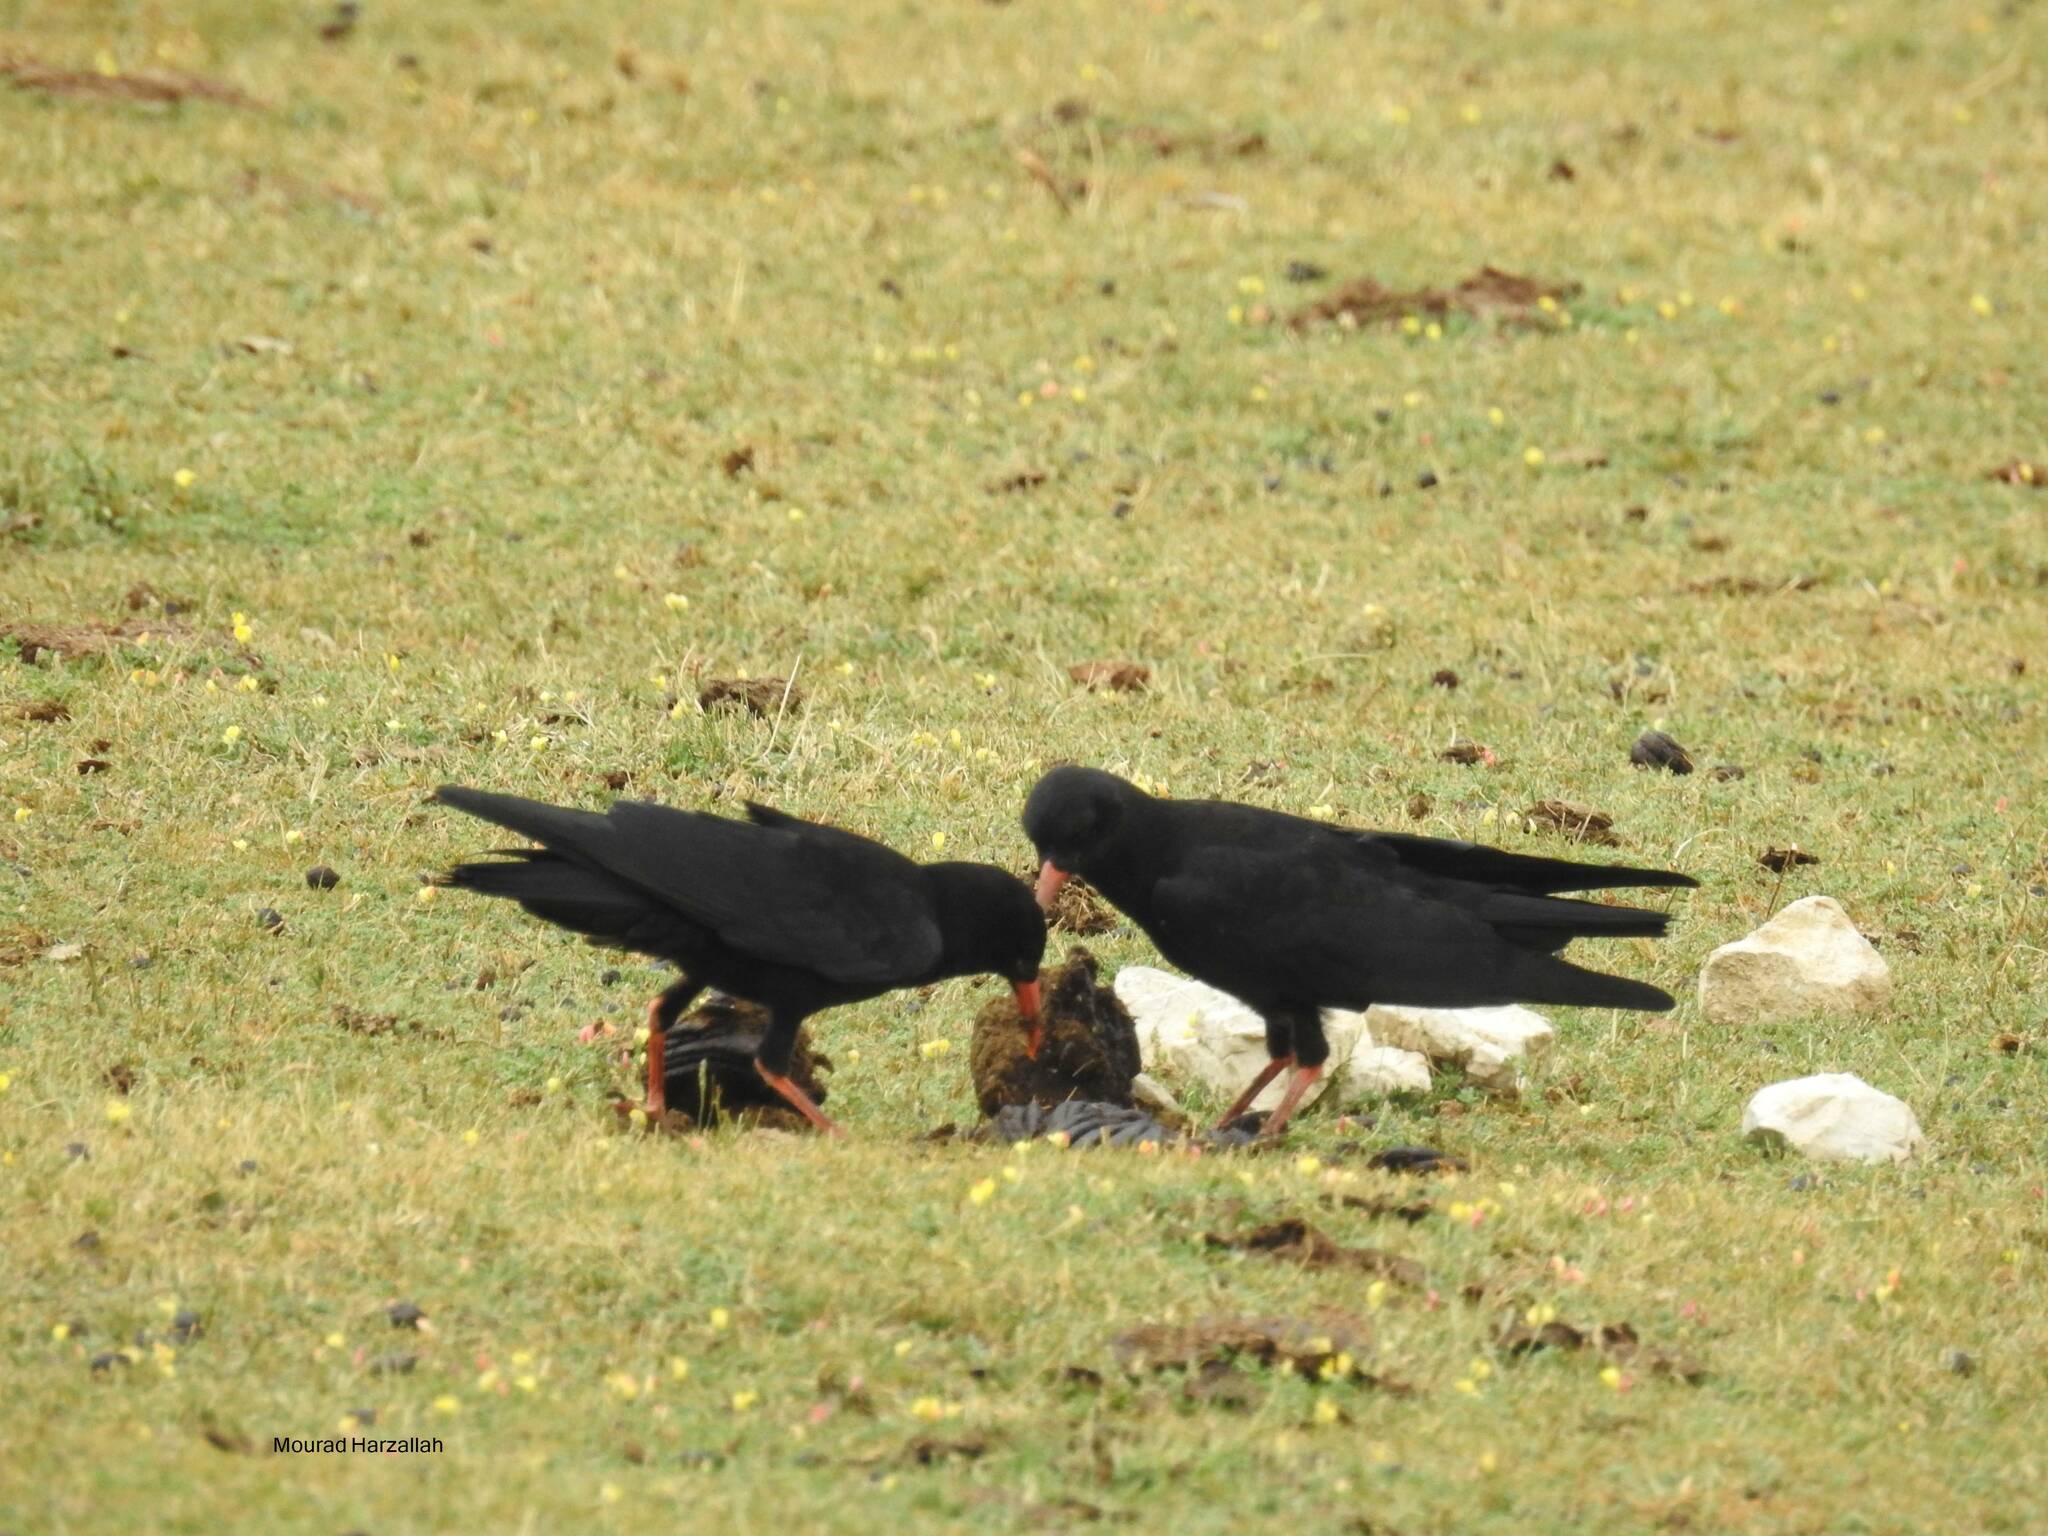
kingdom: Animalia
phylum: Chordata
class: Aves
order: Passeriformes
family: Corvidae
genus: Pyrrhocorax
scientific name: Pyrrhocorax pyrrhocorax
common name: Red-billed chough
